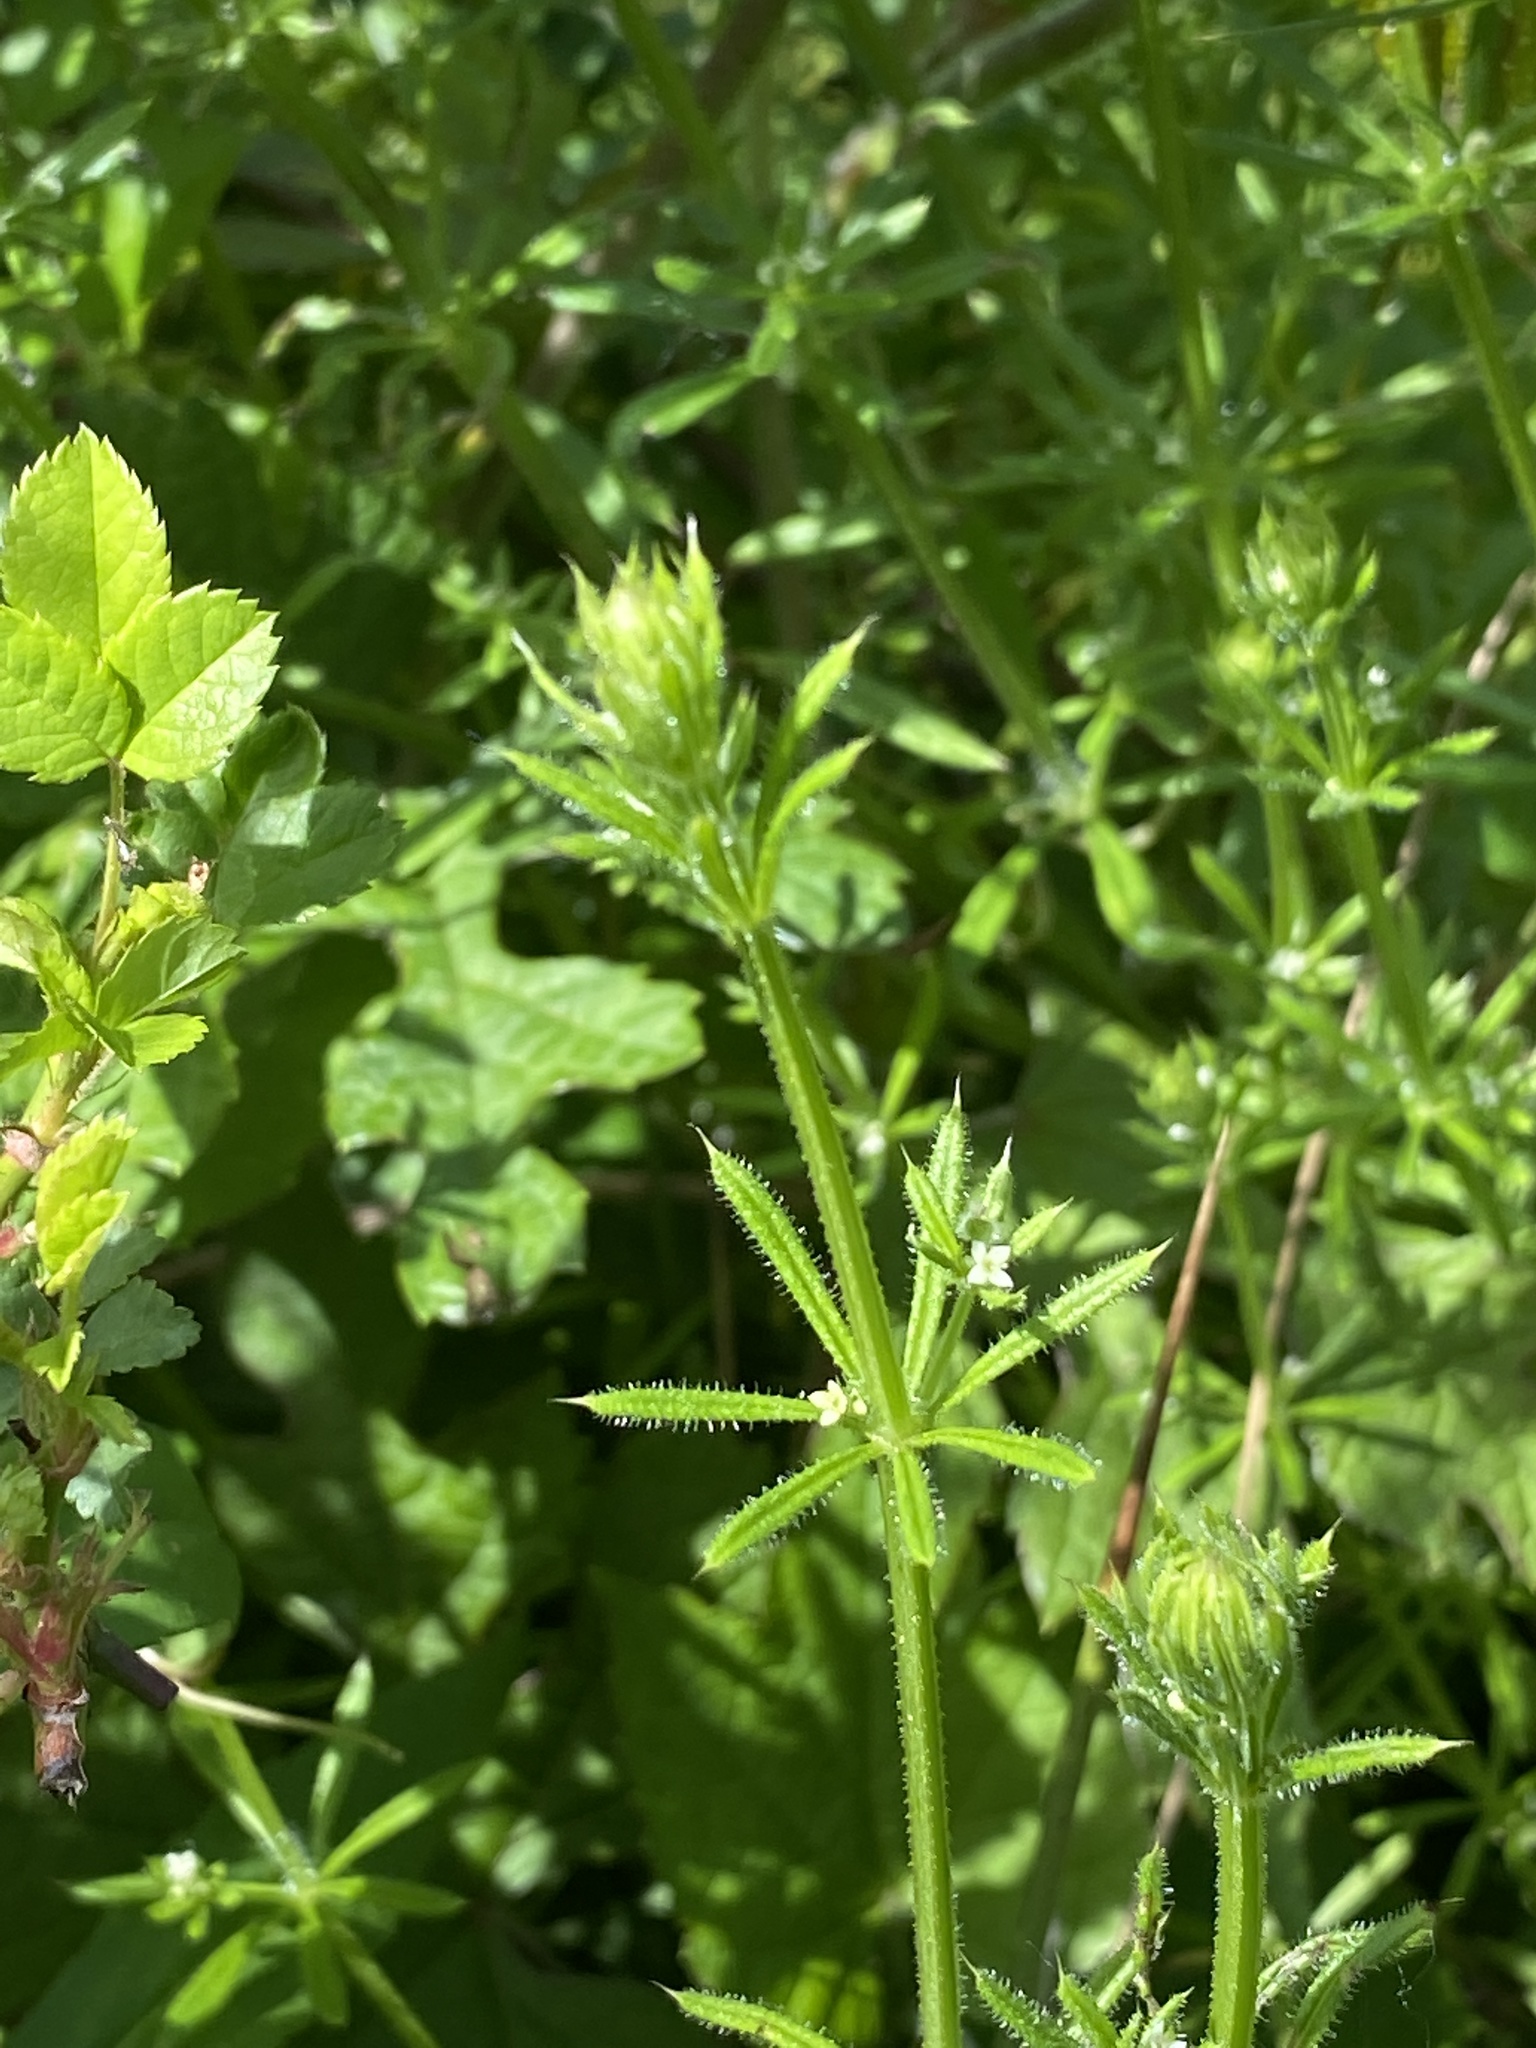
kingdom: Plantae
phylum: Tracheophyta
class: Magnoliopsida
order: Gentianales
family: Rubiaceae
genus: Galium
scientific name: Galium aparine
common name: Cleavers
